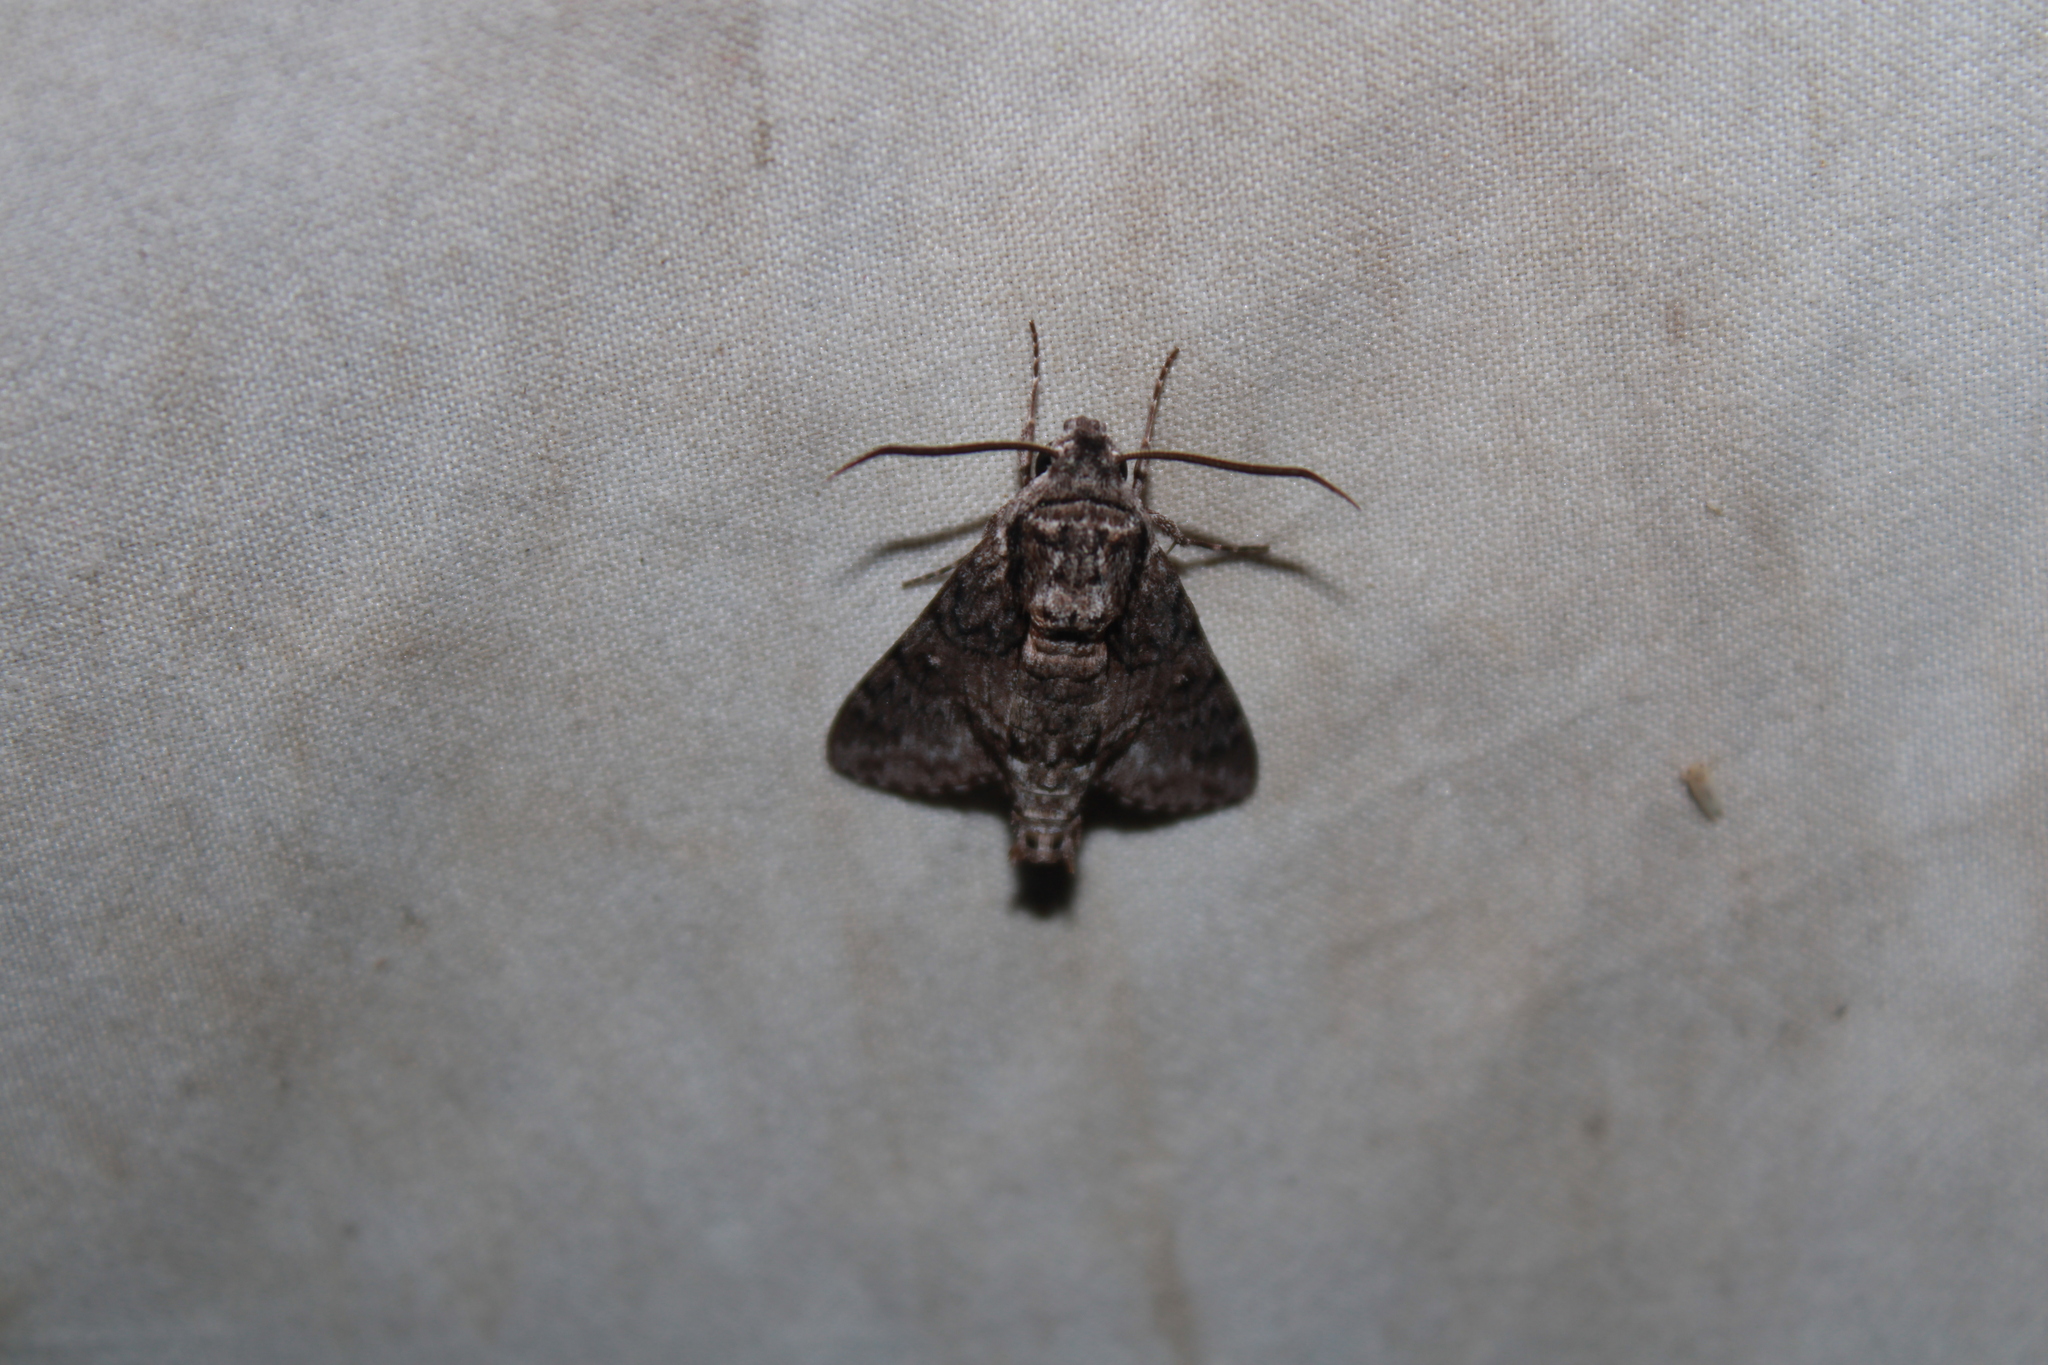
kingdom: Animalia
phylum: Arthropoda
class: Insecta
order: Lepidoptera
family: Sphingidae
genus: Cautethia
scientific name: Cautethia grotei
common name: Grote's sphinx
